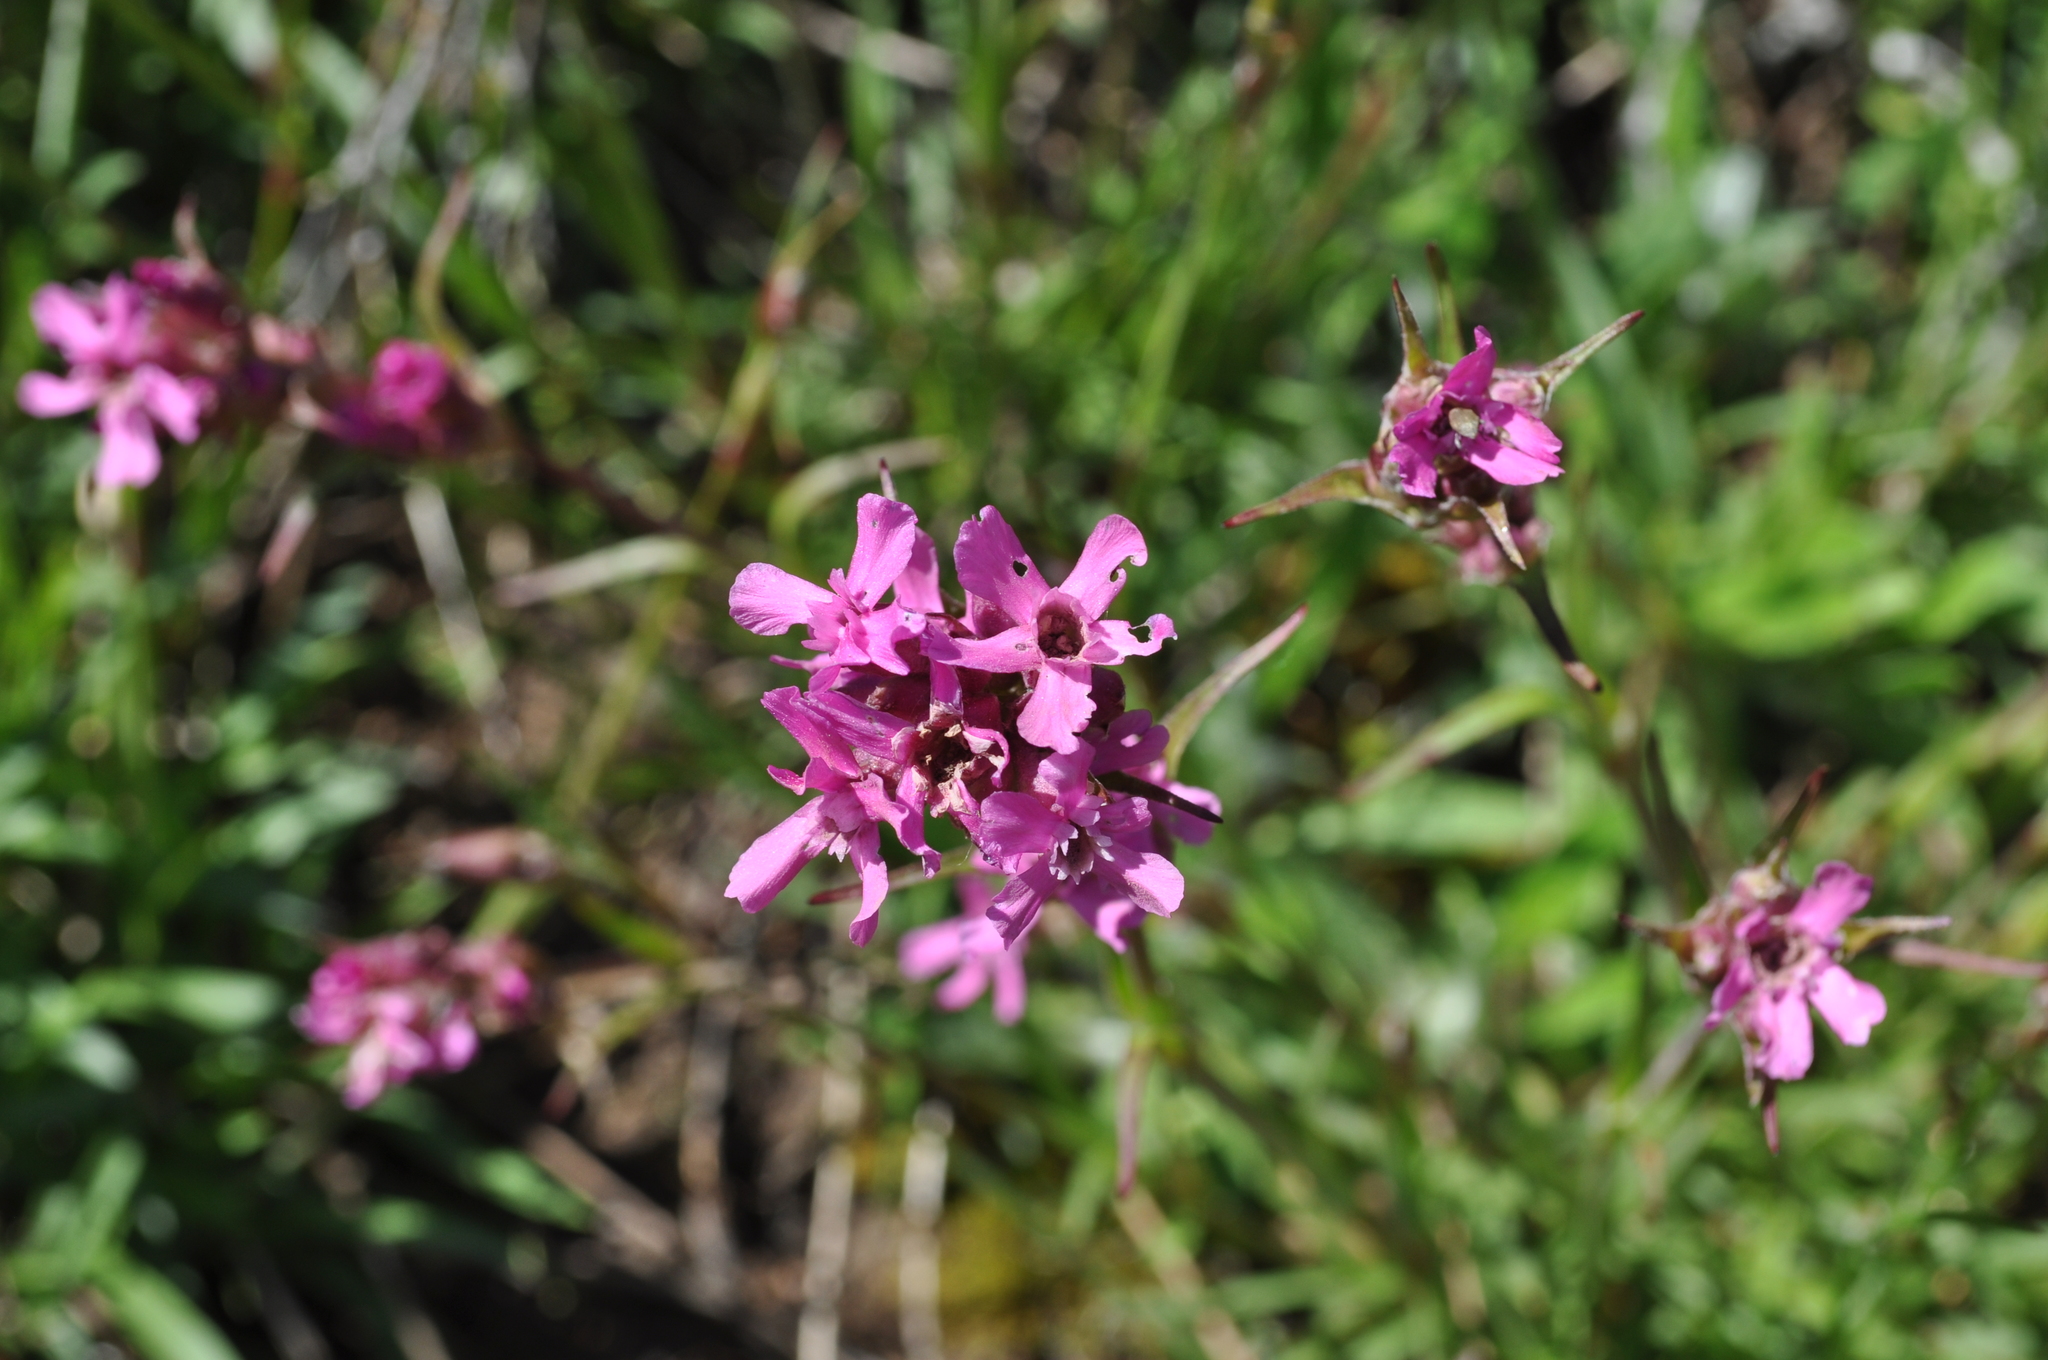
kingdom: Plantae
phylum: Tracheophyta
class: Magnoliopsida
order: Caryophyllales
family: Caryophyllaceae
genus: Viscaria
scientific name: Viscaria vulgaris
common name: Clammy campion
